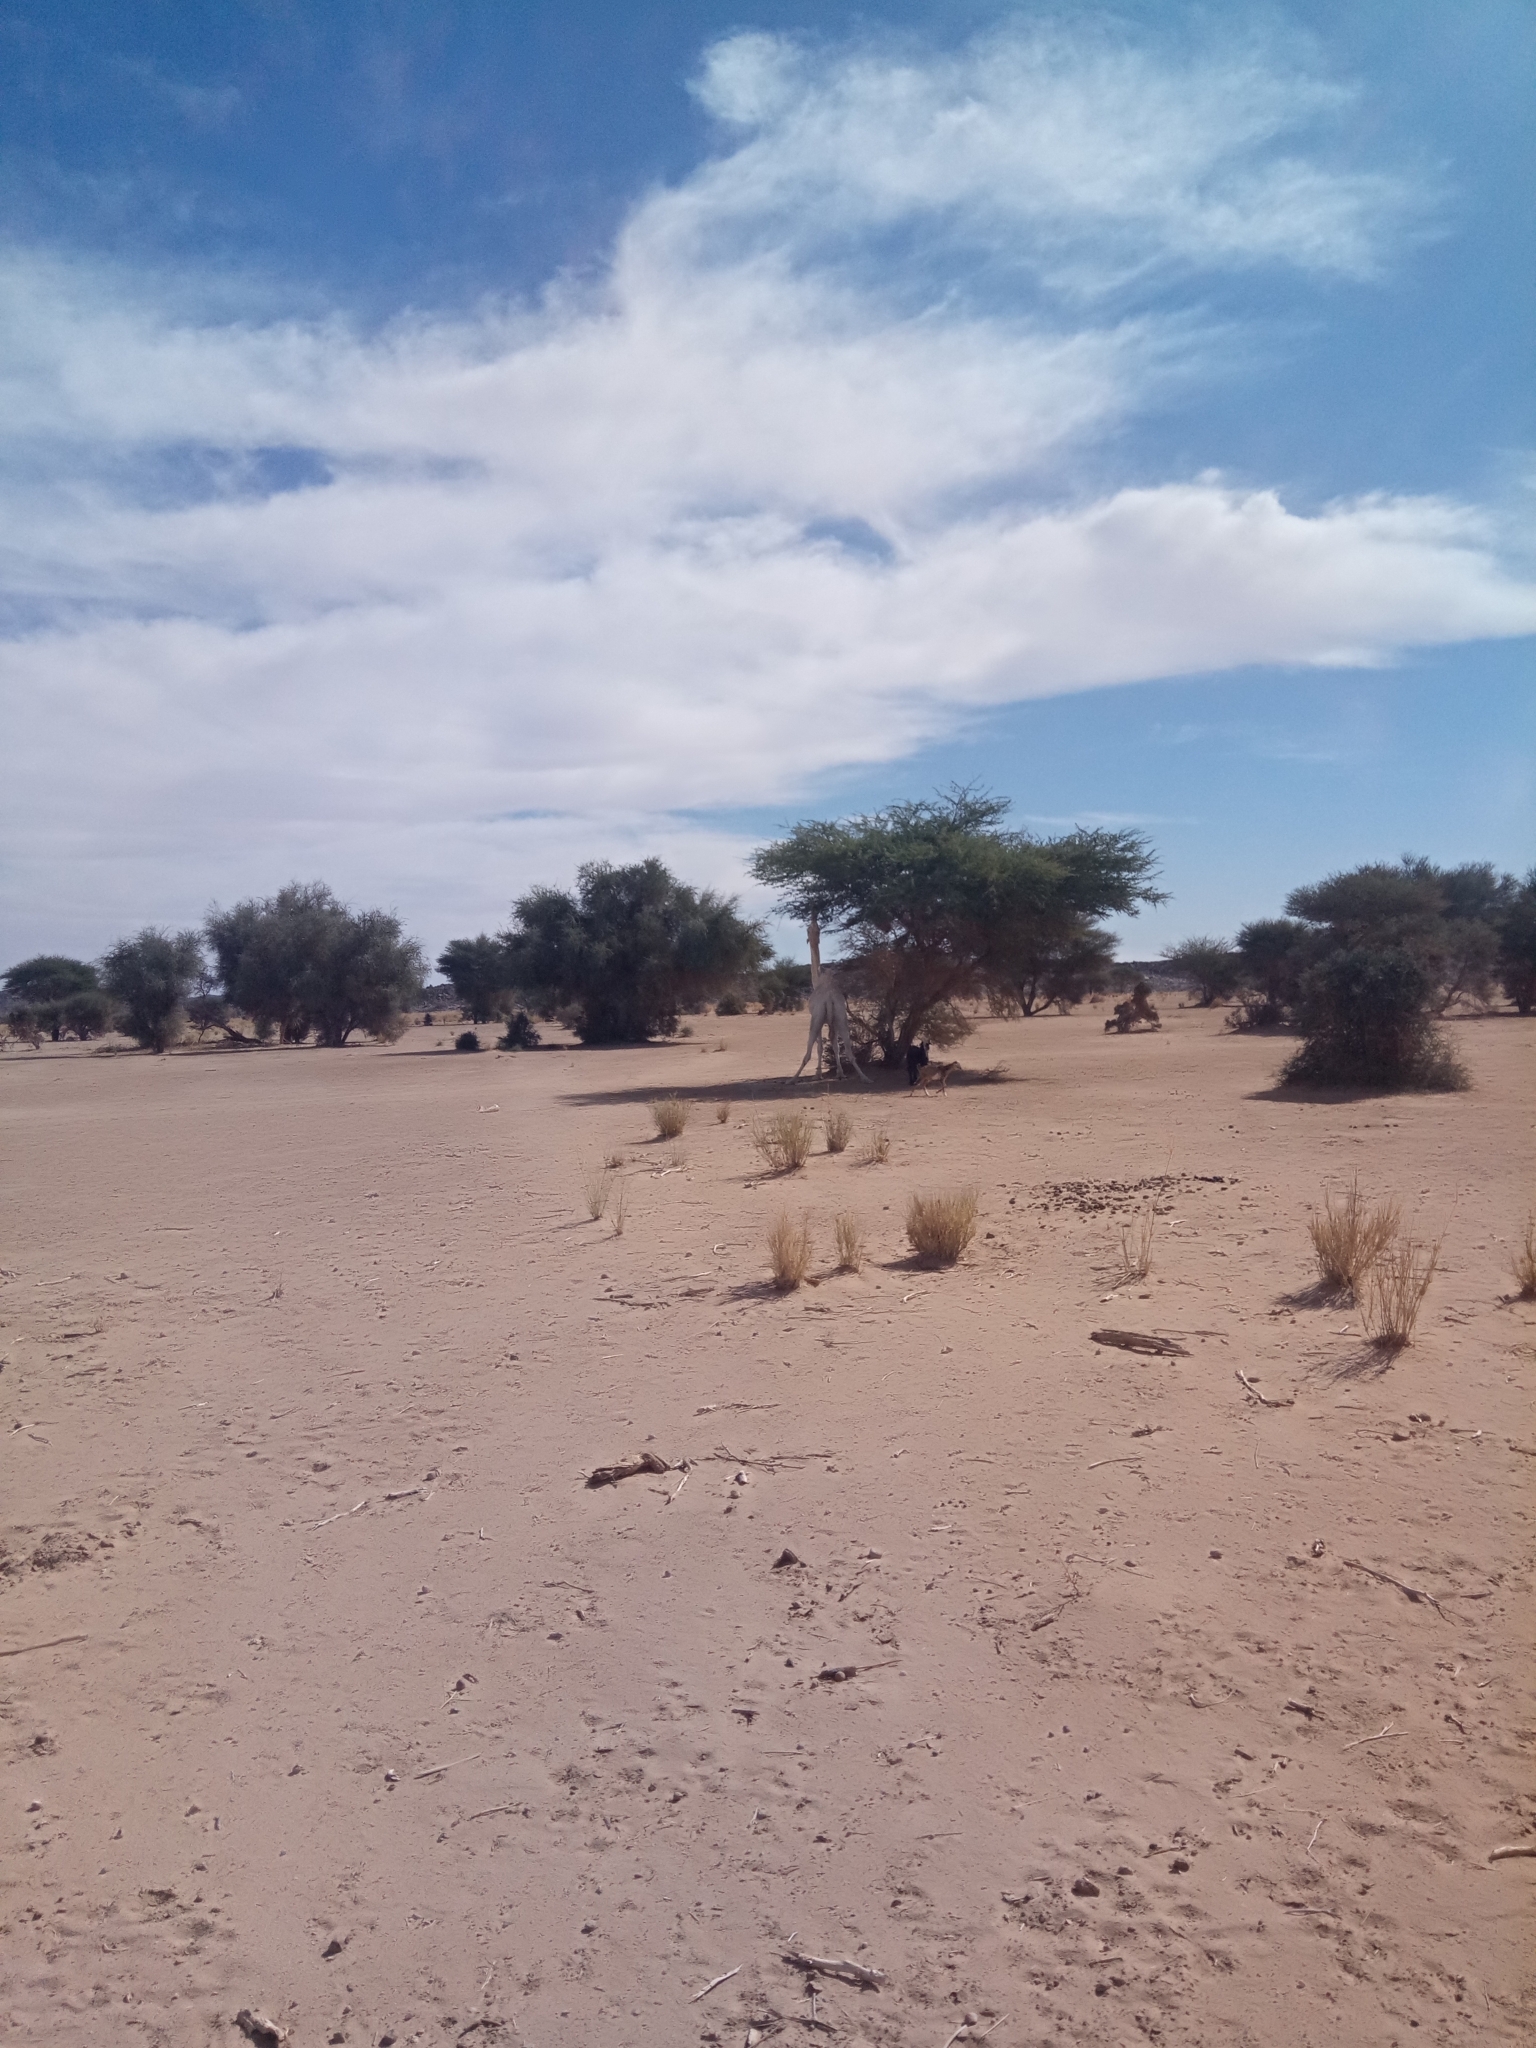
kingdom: Animalia
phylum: Chordata
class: Mammalia
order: Artiodactyla
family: Camelidae
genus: Camelus
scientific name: Camelus dromedarius
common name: One-humped camel
